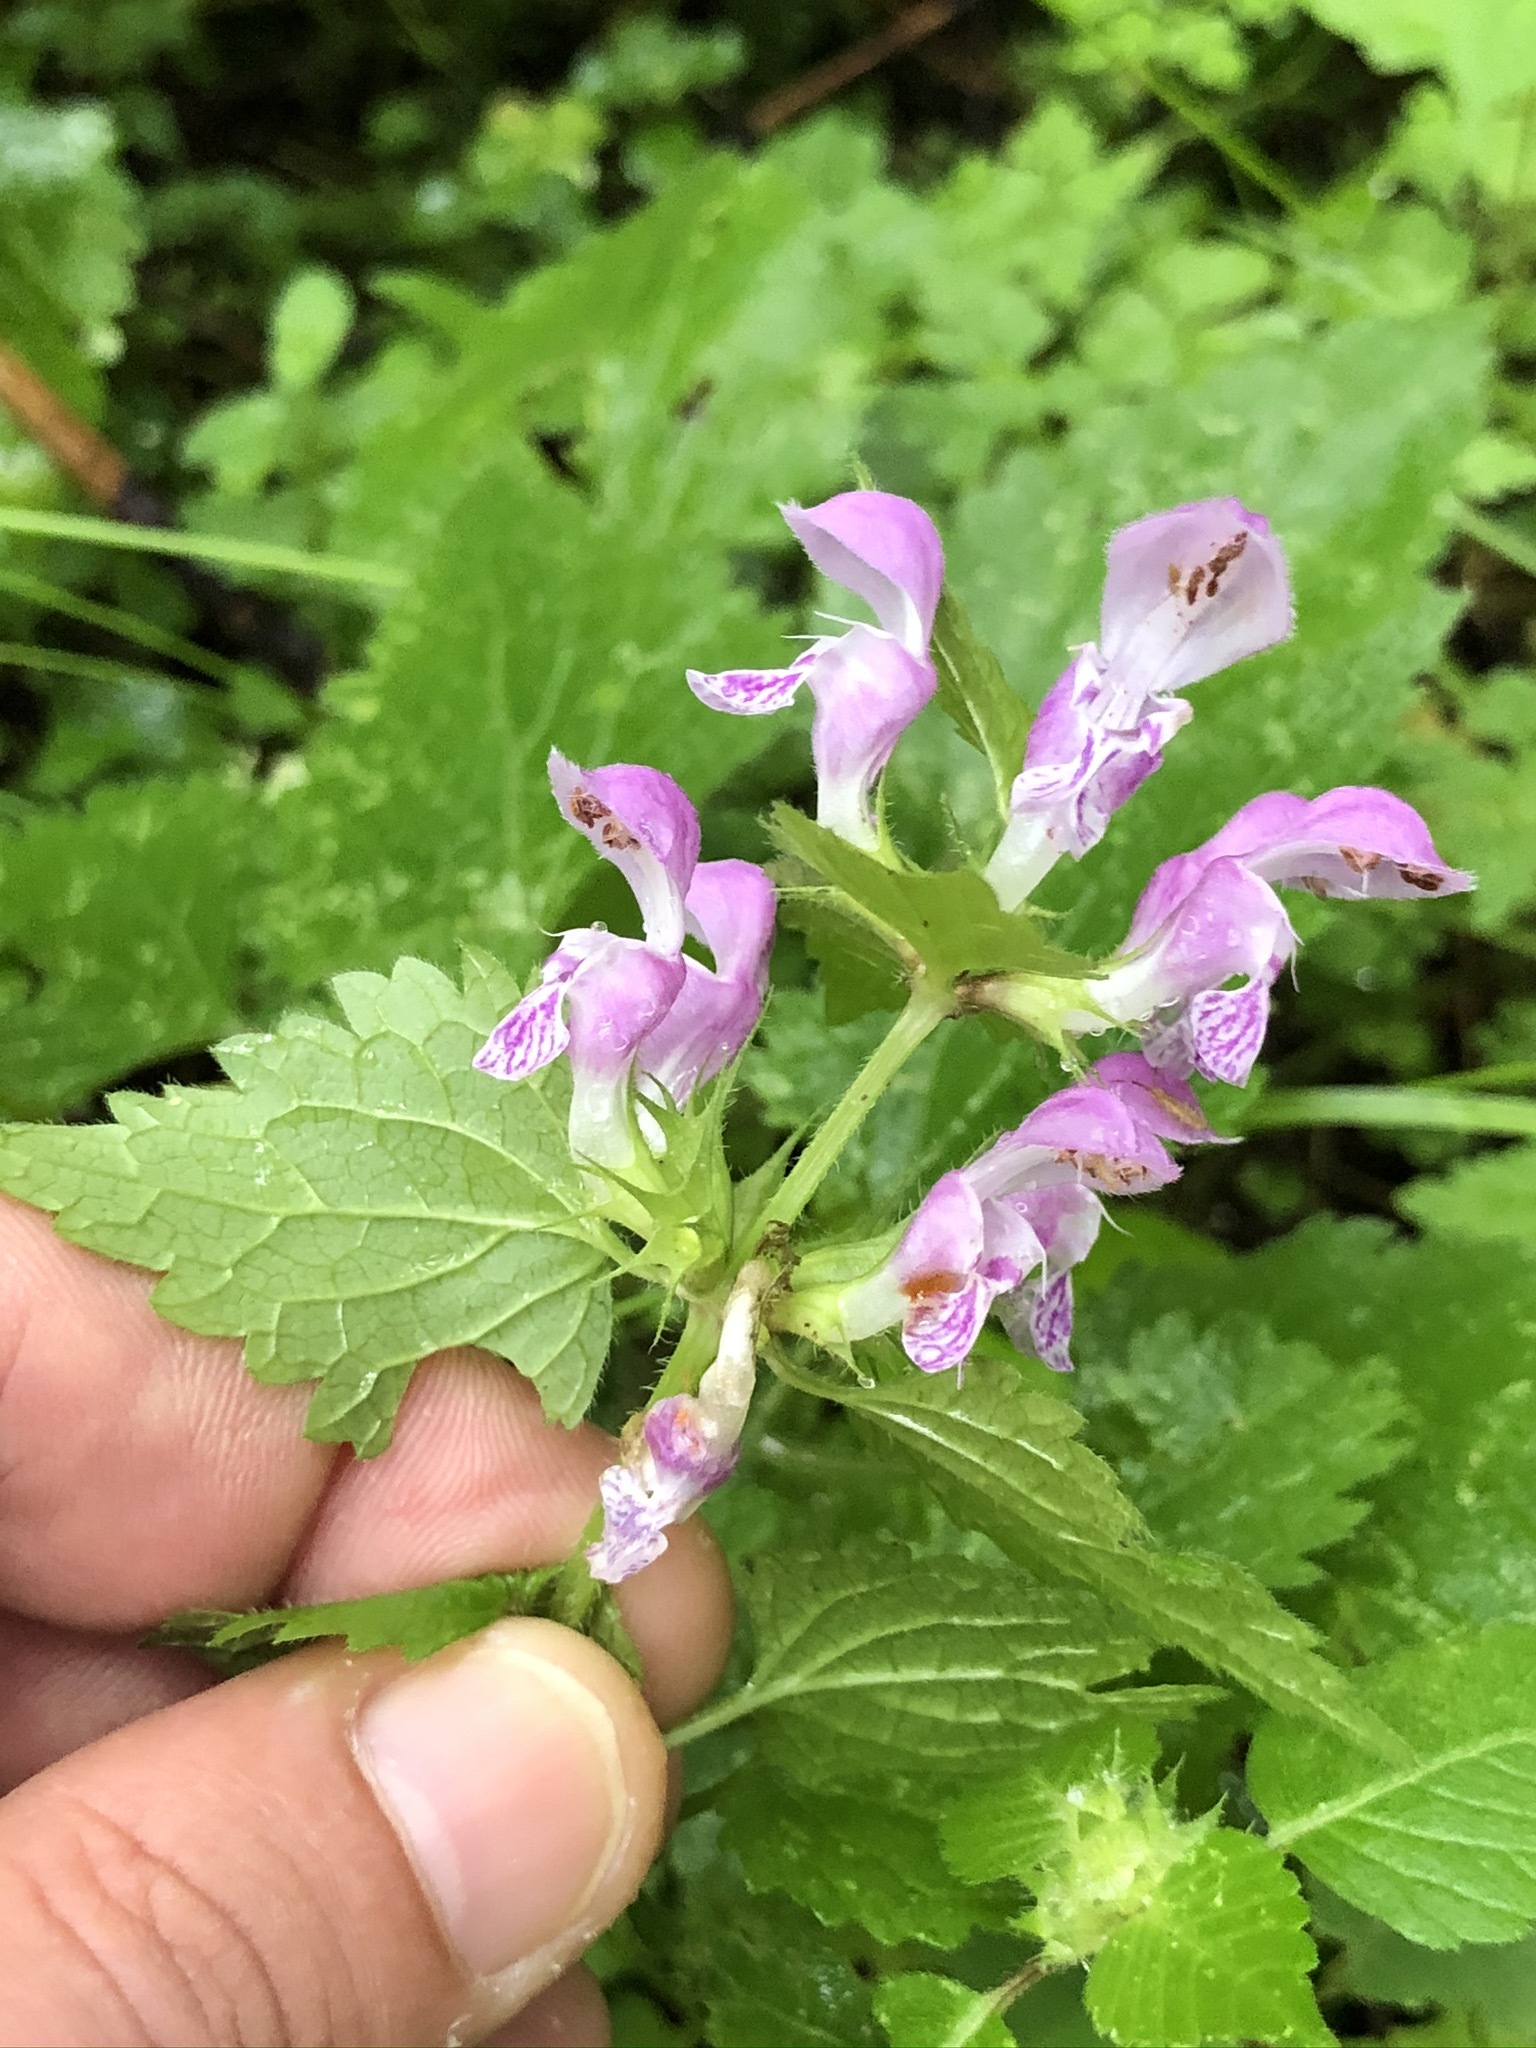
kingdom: Plantae
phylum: Tracheophyta
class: Magnoliopsida
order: Lamiales
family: Lamiaceae
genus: Lamium
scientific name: Lamium maculatum
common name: Spotted dead-nettle
